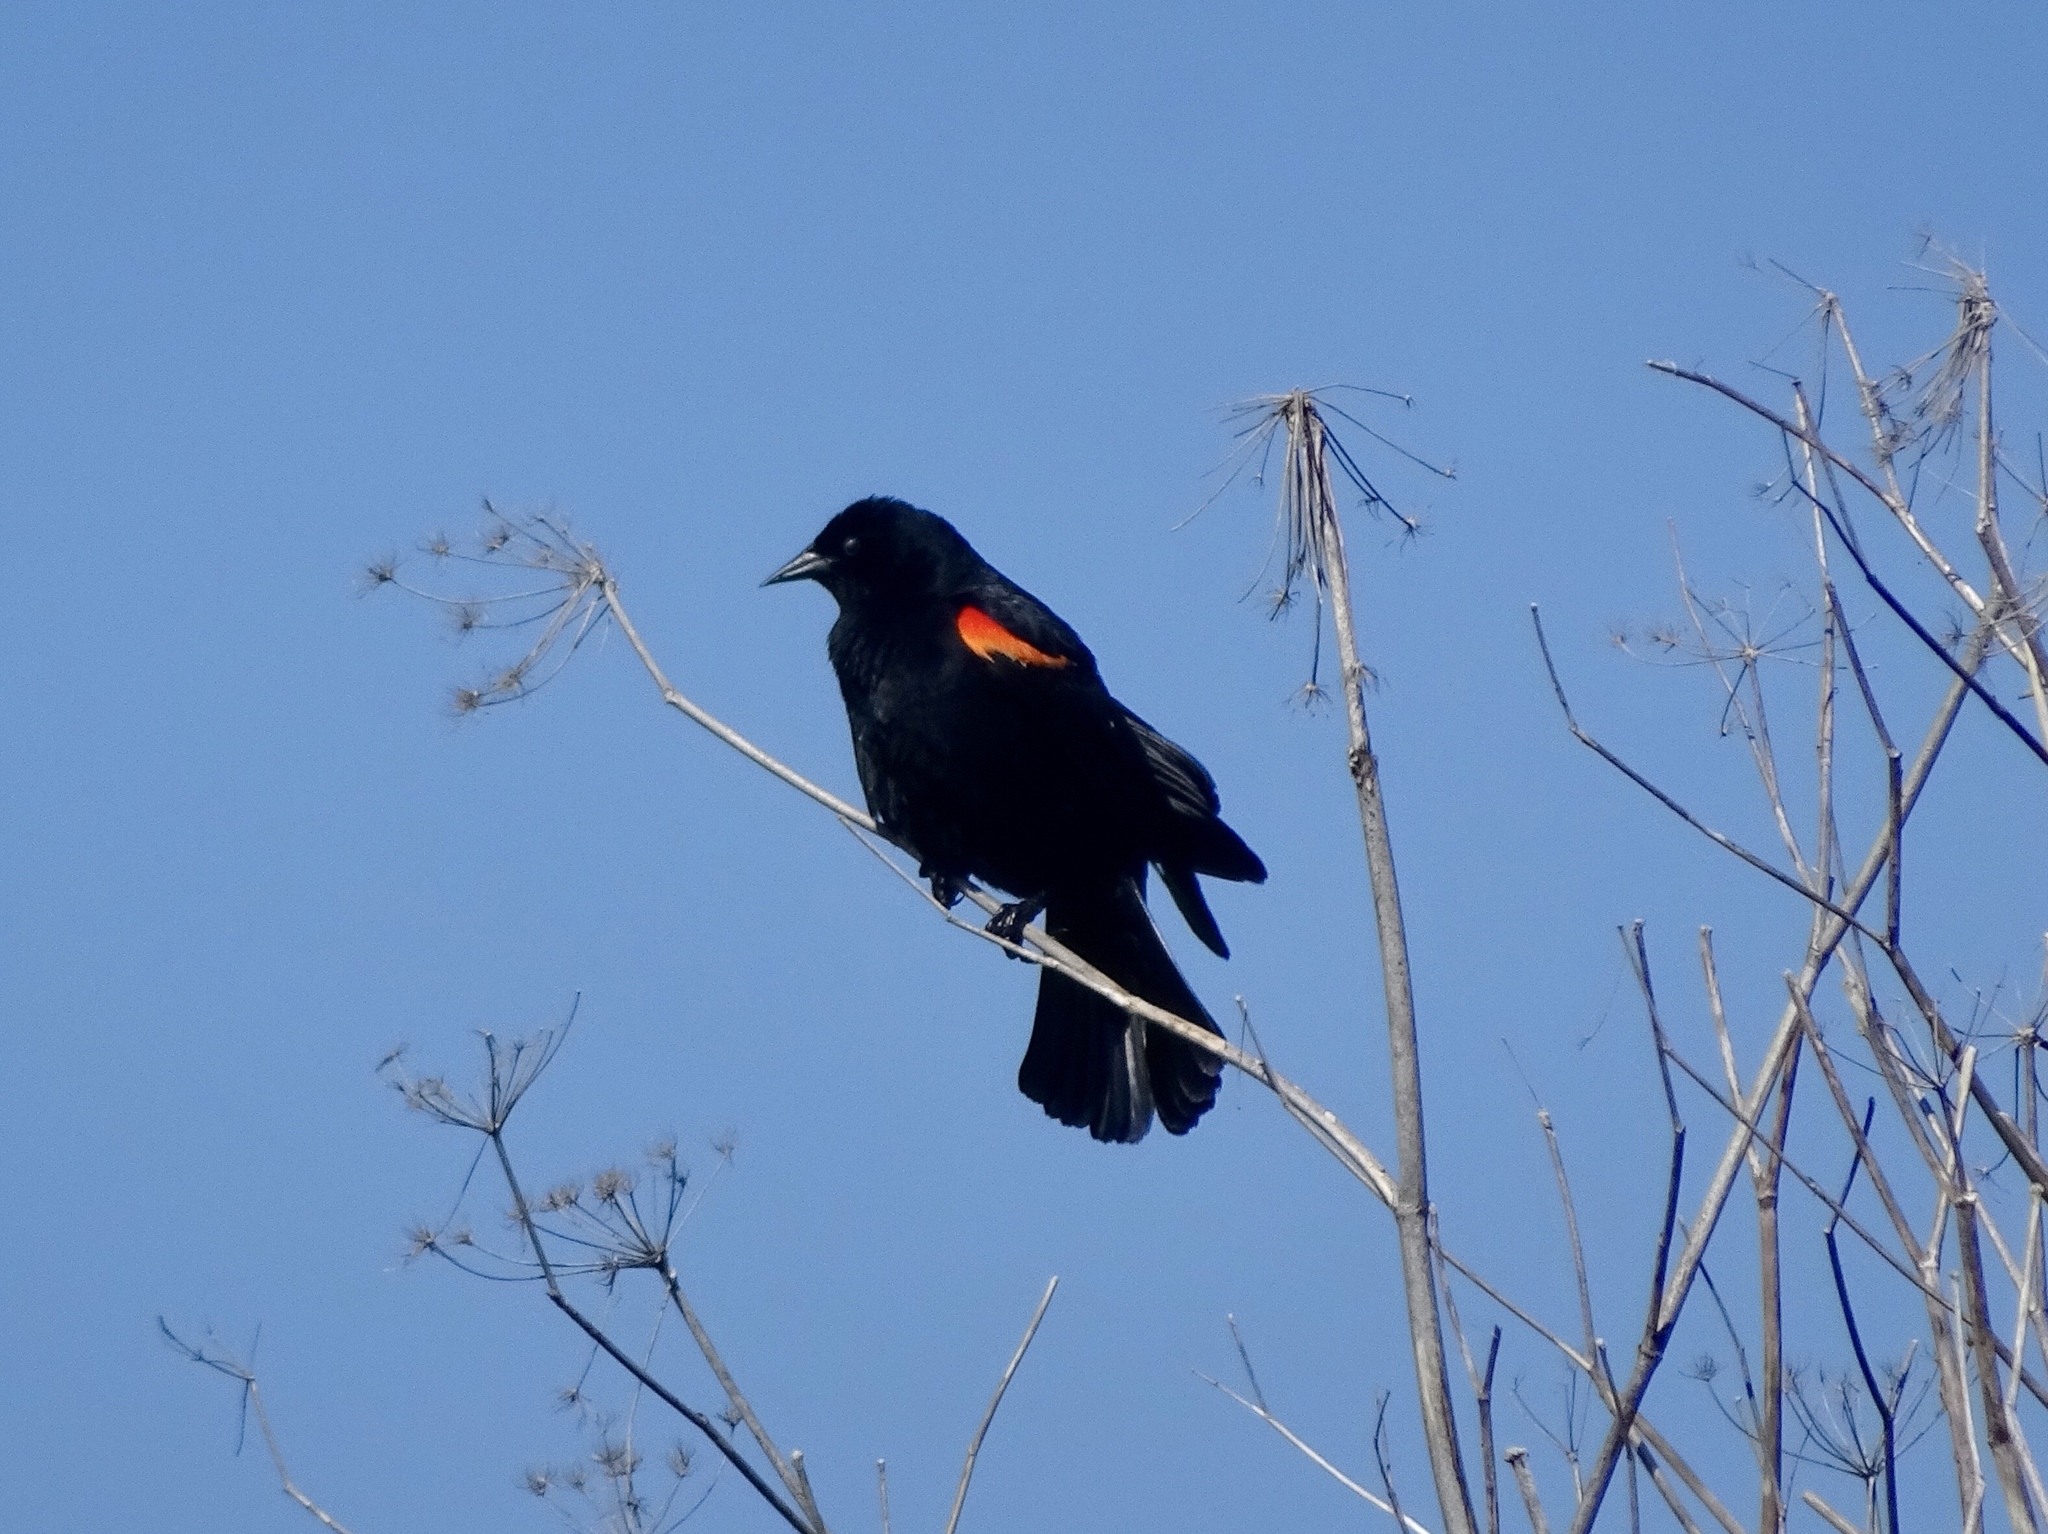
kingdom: Animalia
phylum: Chordata
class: Aves
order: Passeriformes
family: Icteridae
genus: Agelaius
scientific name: Agelaius phoeniceus
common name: Red-winged blackbird
